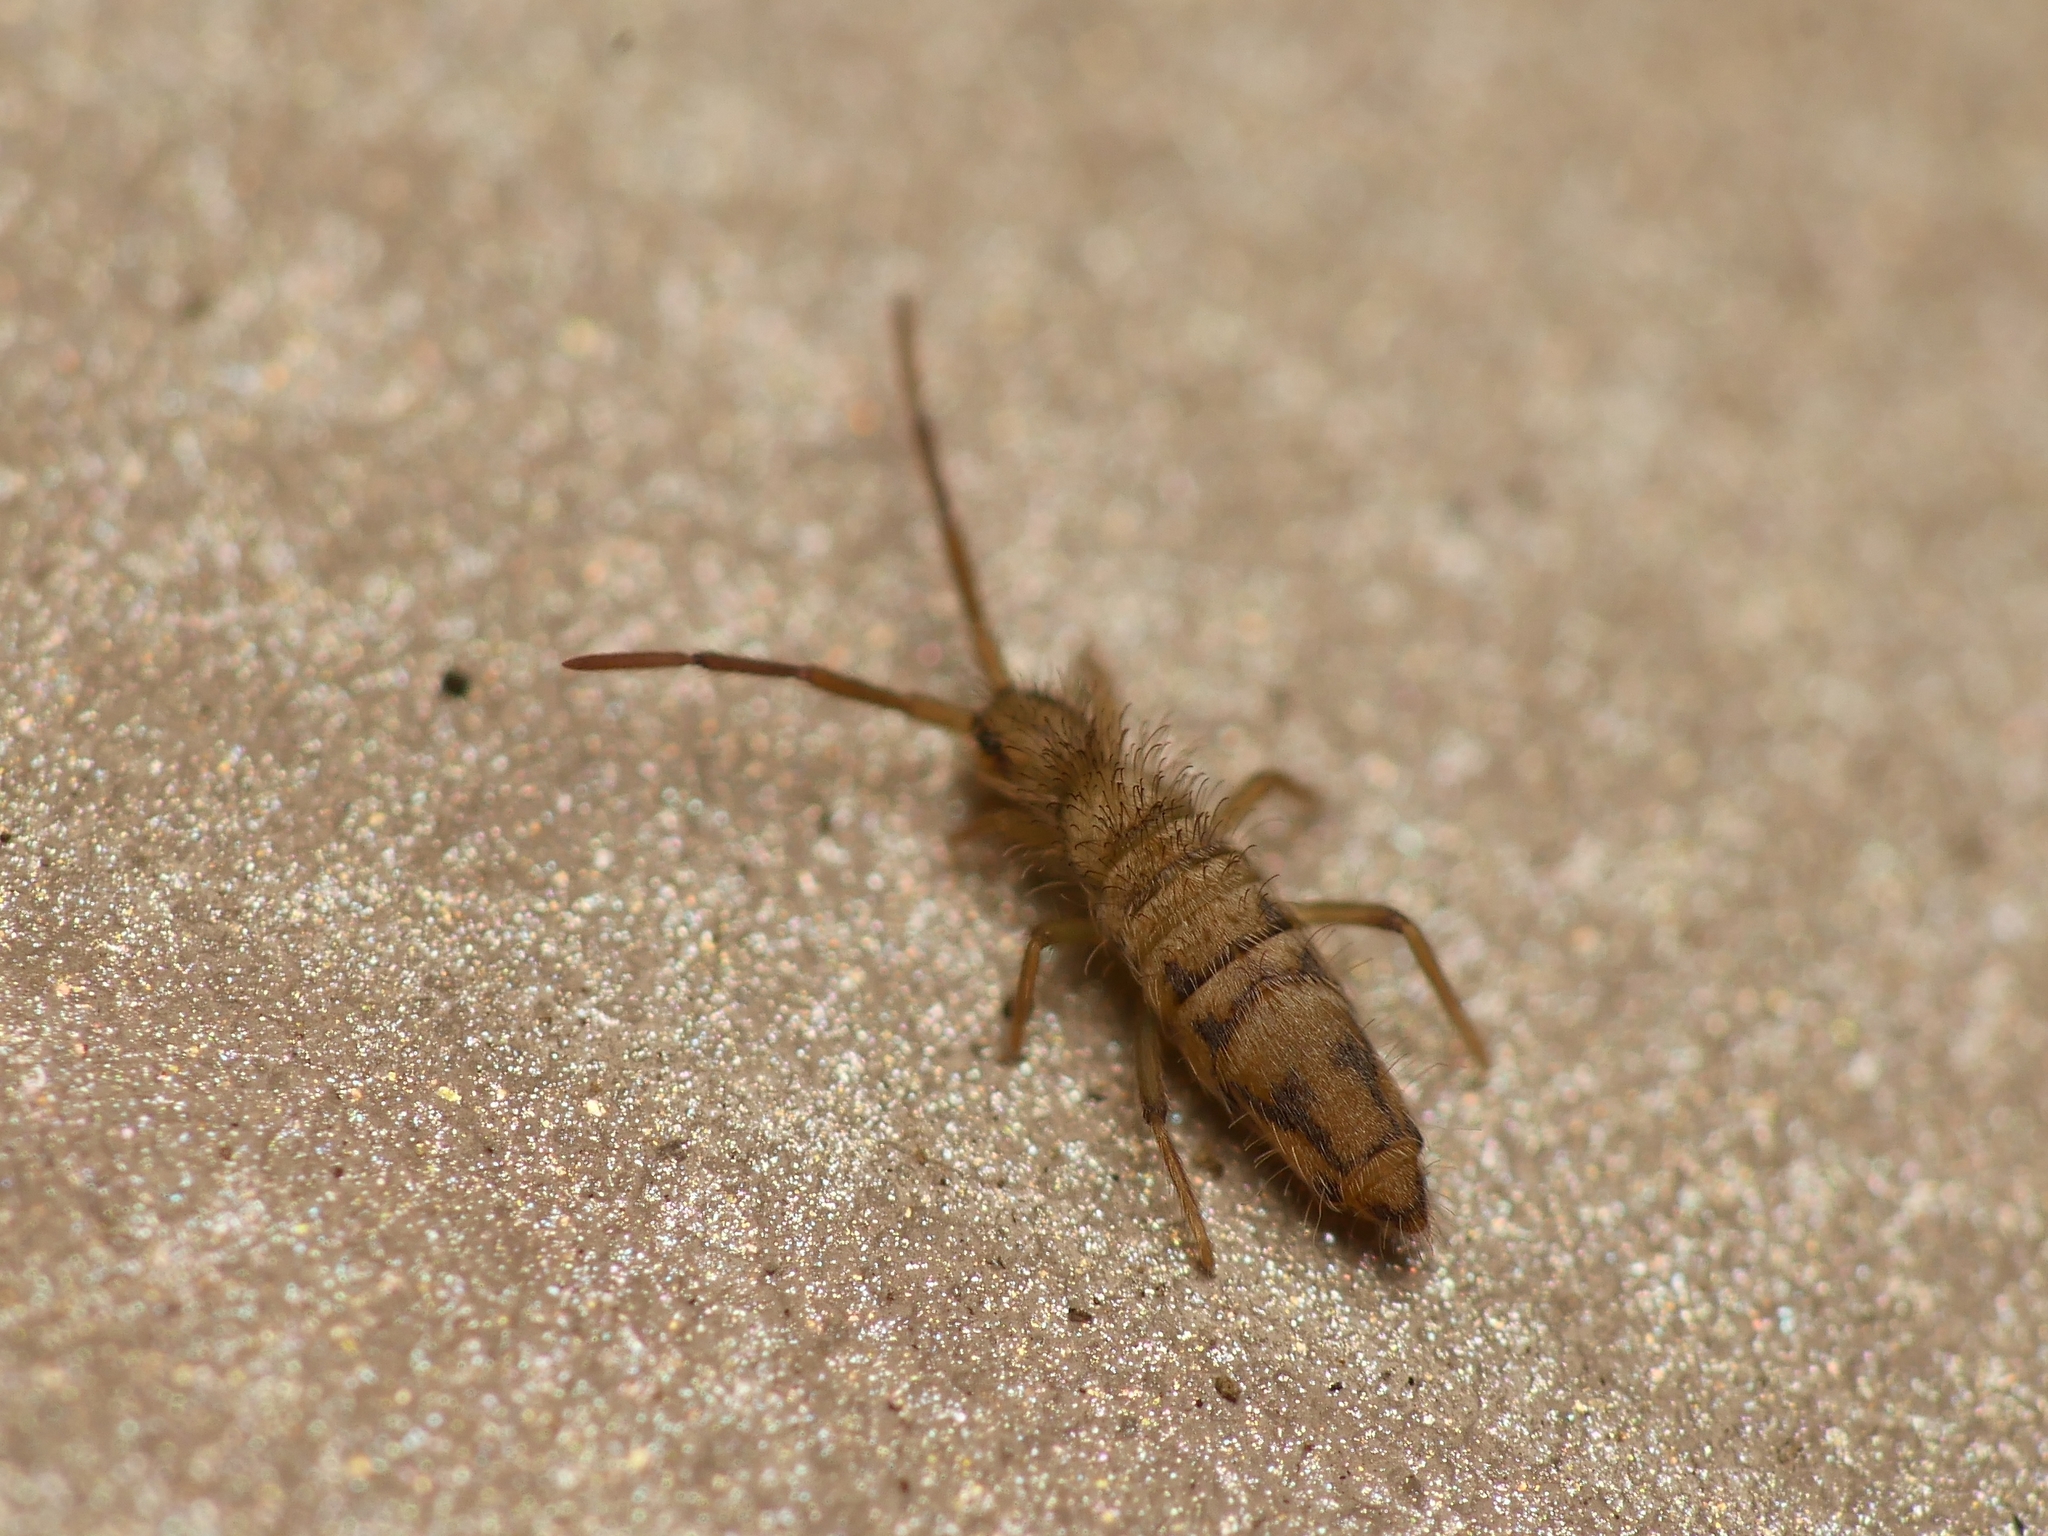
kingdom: Animalia
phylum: Arthropoda
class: Collembola
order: Entomobryomorpha
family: Entomobryidae
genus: Entomobrya
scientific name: Entomobrya nivalis
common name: Cosmopolitan springtail
